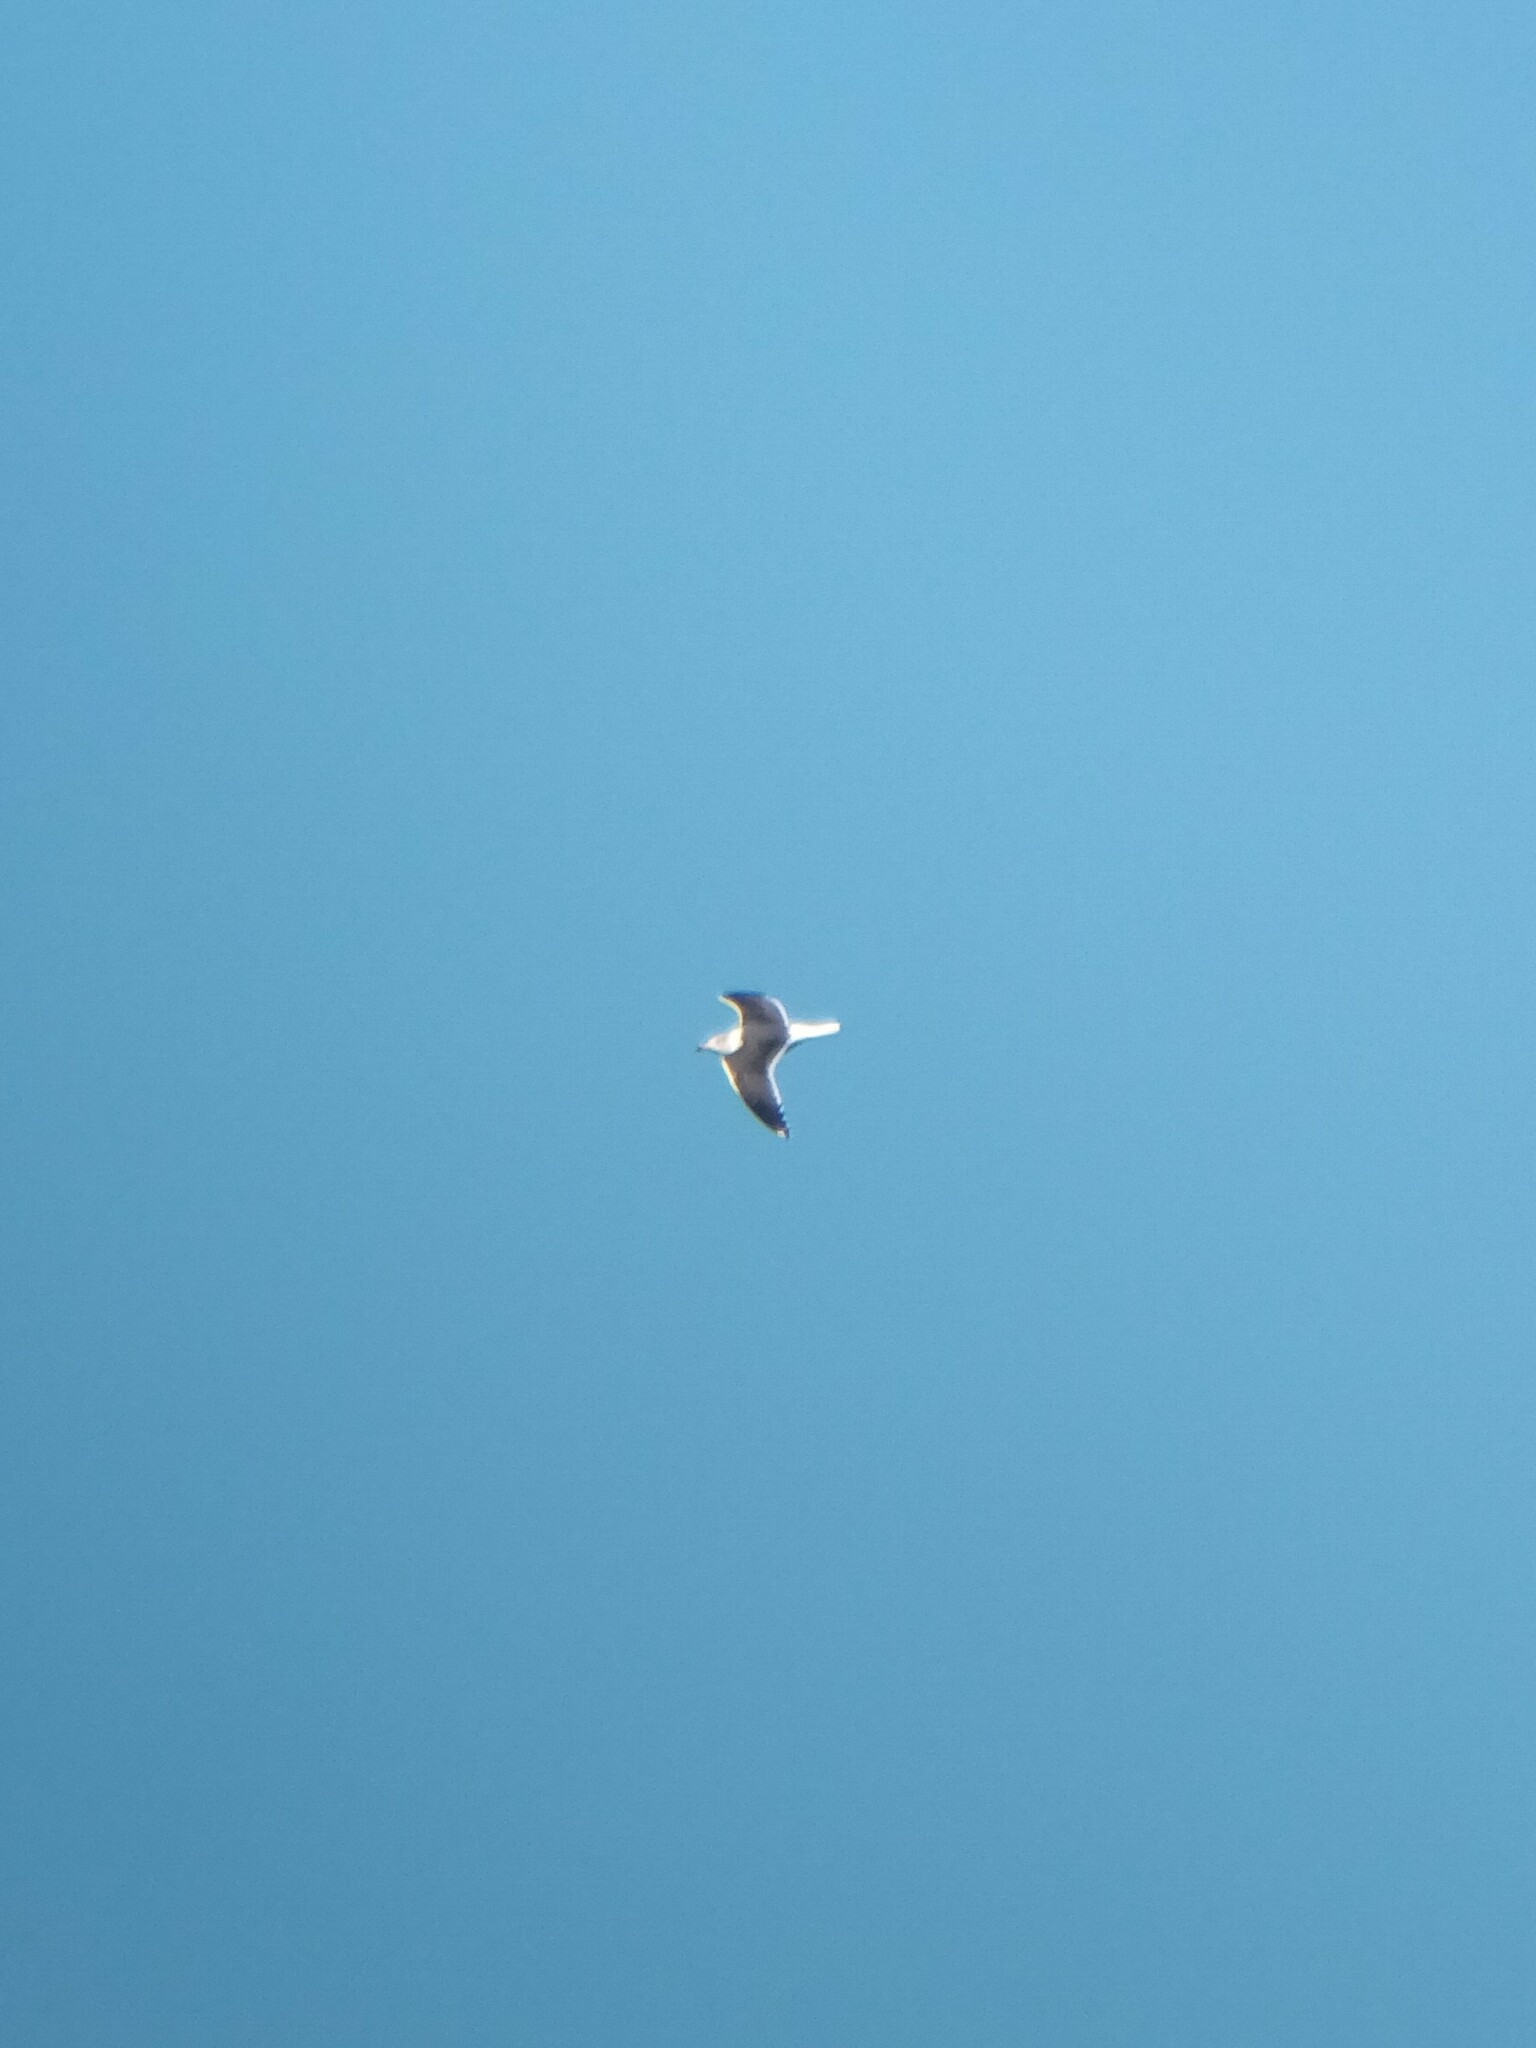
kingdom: Animalia
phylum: Chordata
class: Aves
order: Charadriiformes
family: Laridae
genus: Larus
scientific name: Larus fuscus
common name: Lesser black-backed gull
